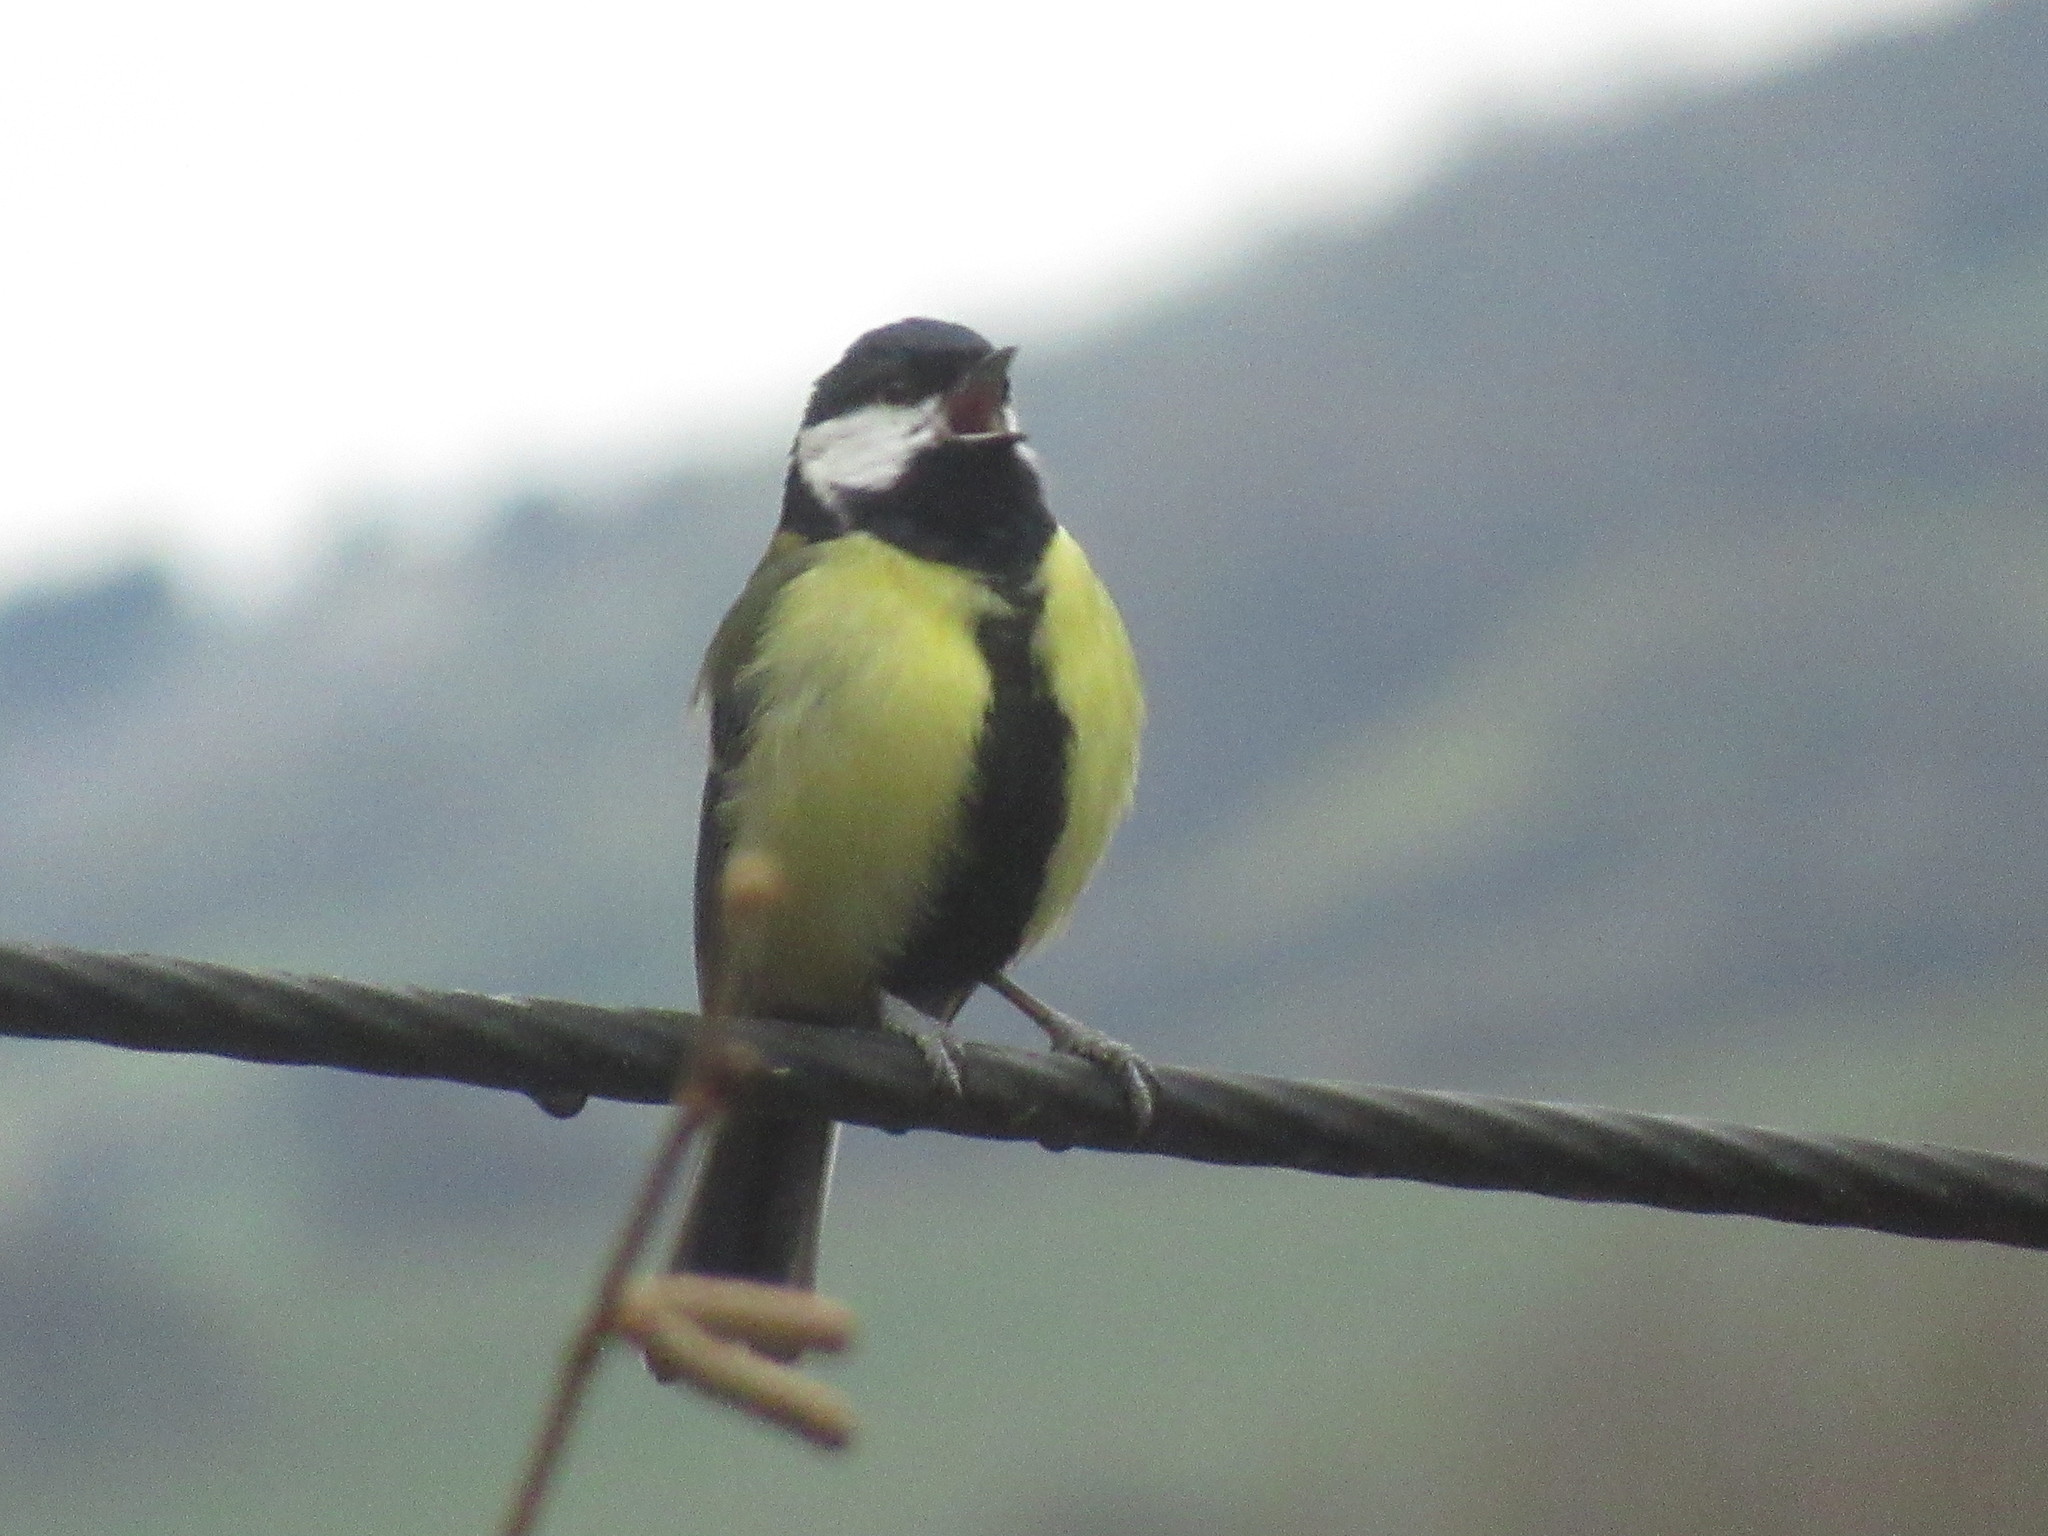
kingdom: Animalia
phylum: Chordata
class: Aves
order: Passeriformes
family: Paridae
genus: Parus
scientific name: Parus major
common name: Great tit
